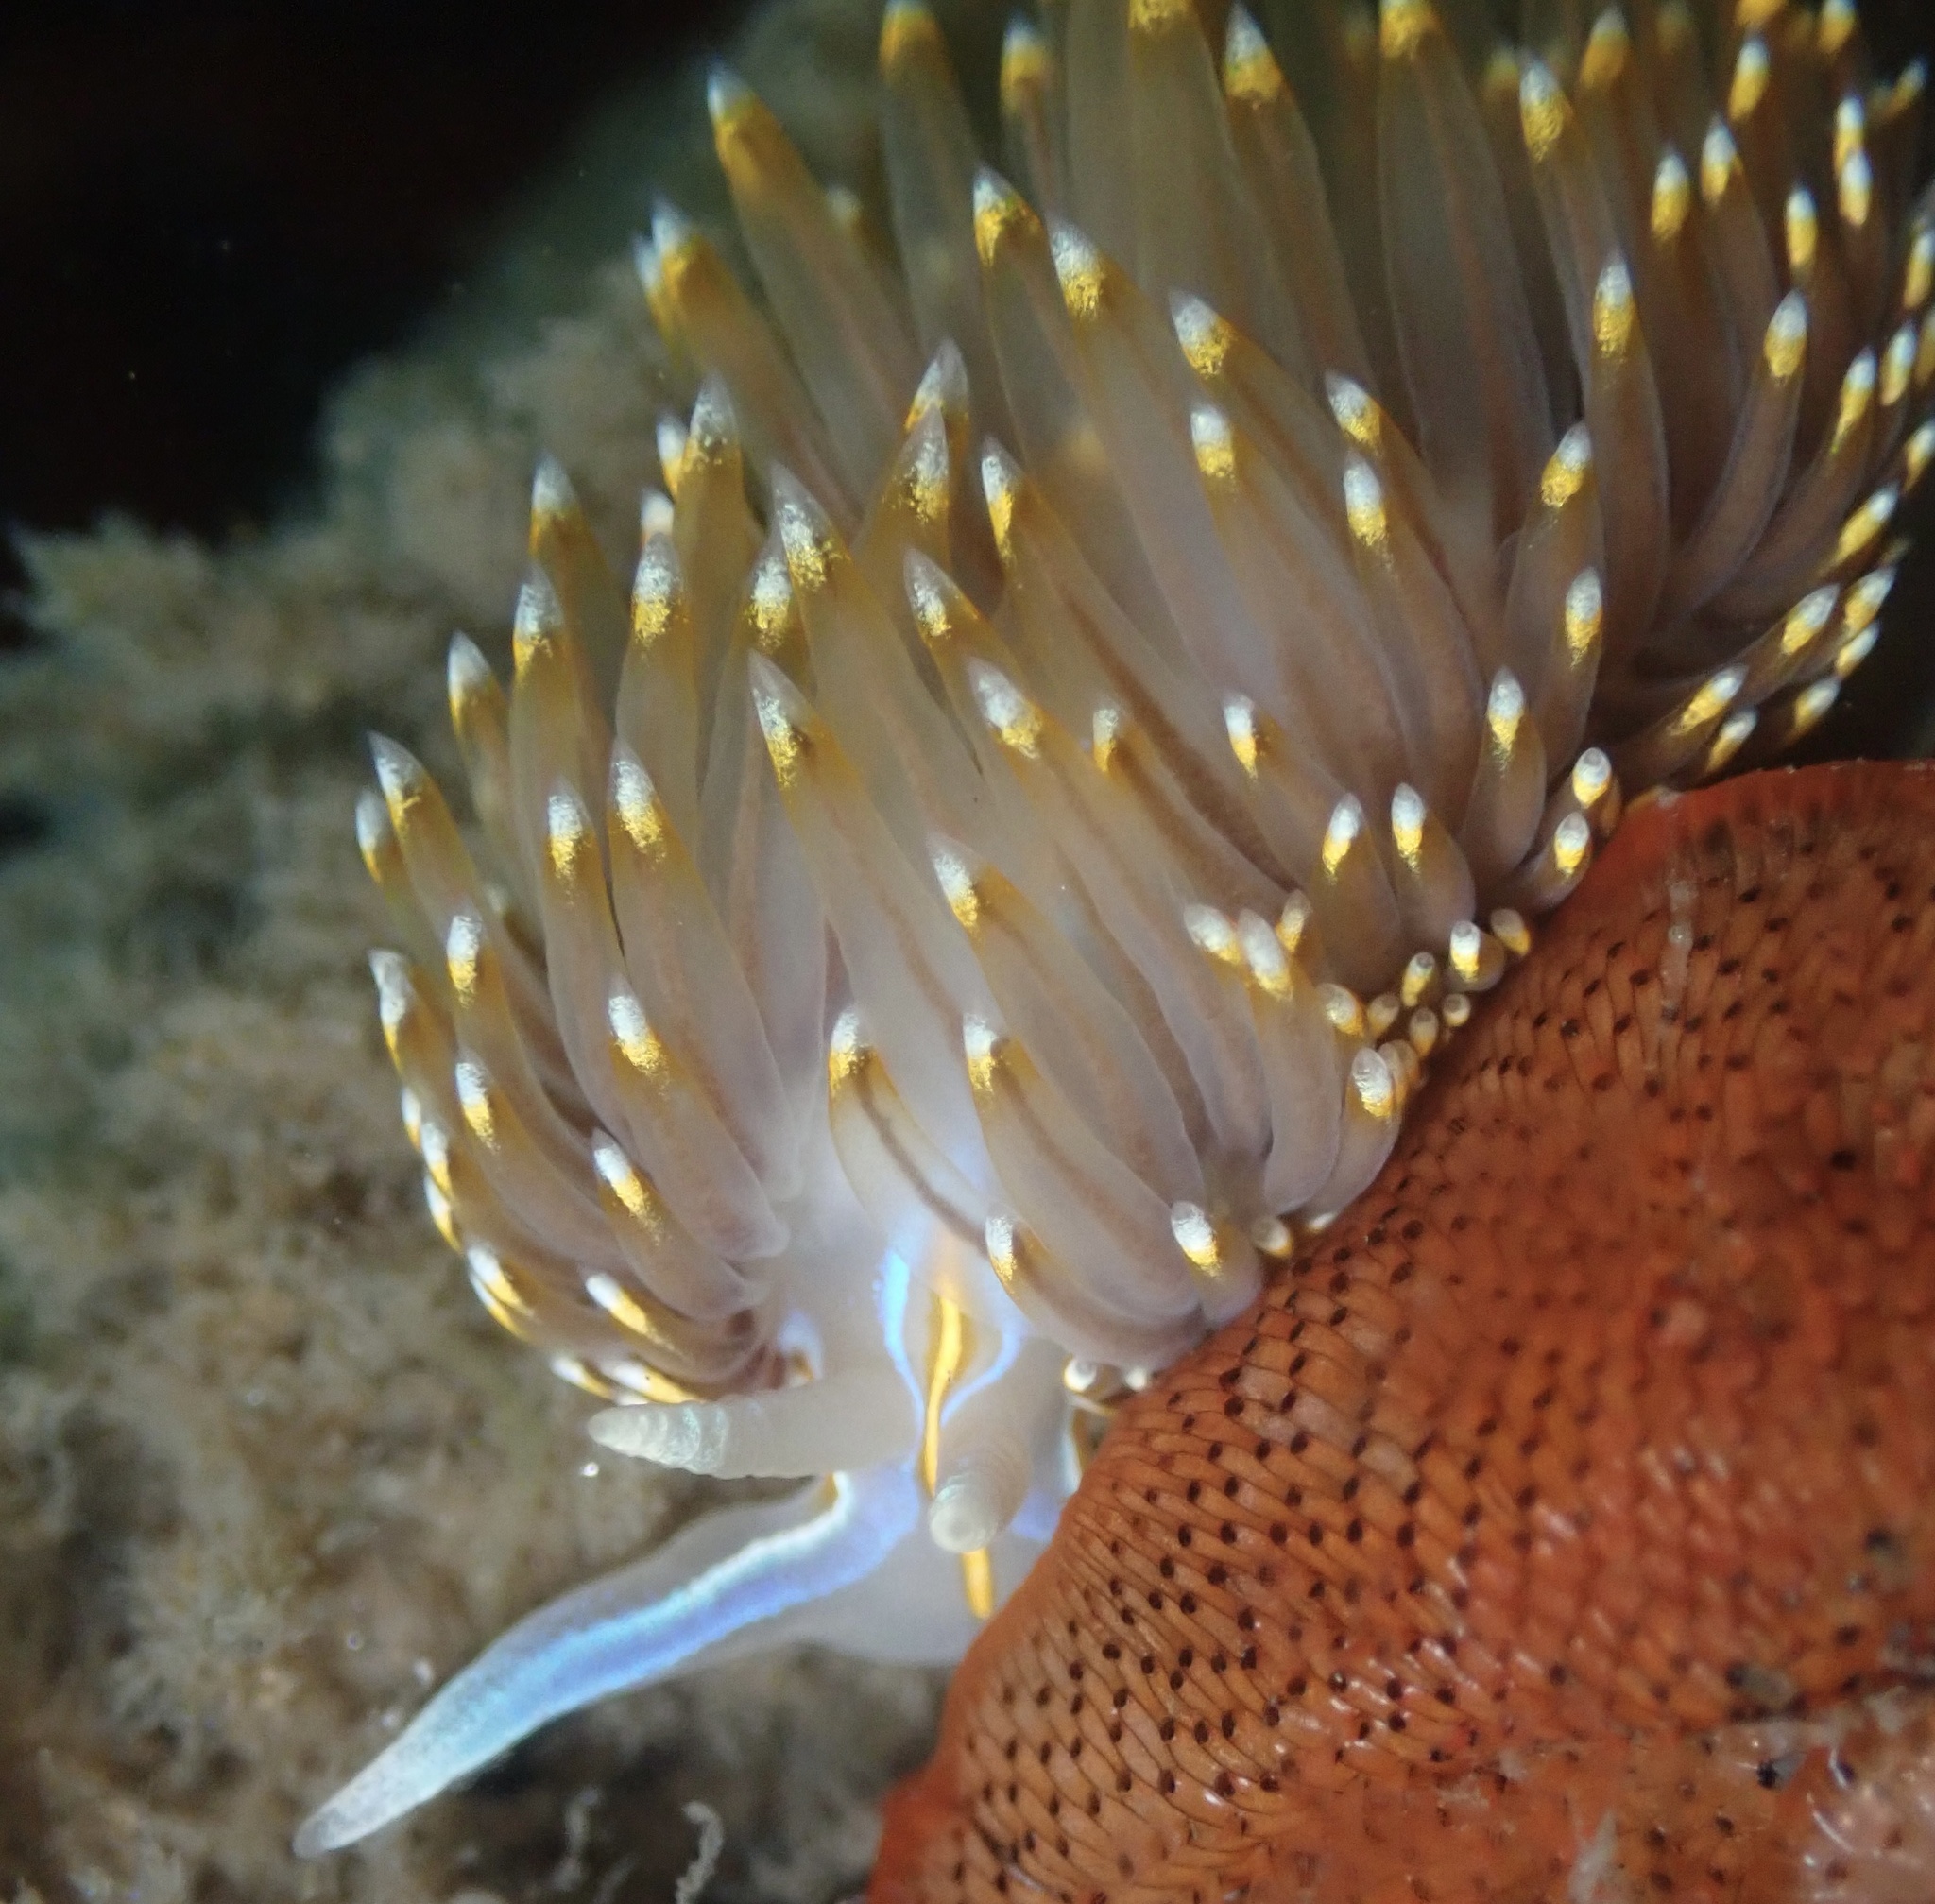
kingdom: Animalia
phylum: Mollusca
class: Gastropoda
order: Nudibranchia
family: Myrrhinidae
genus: Hermissenda
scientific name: Hermissenda opalescens
